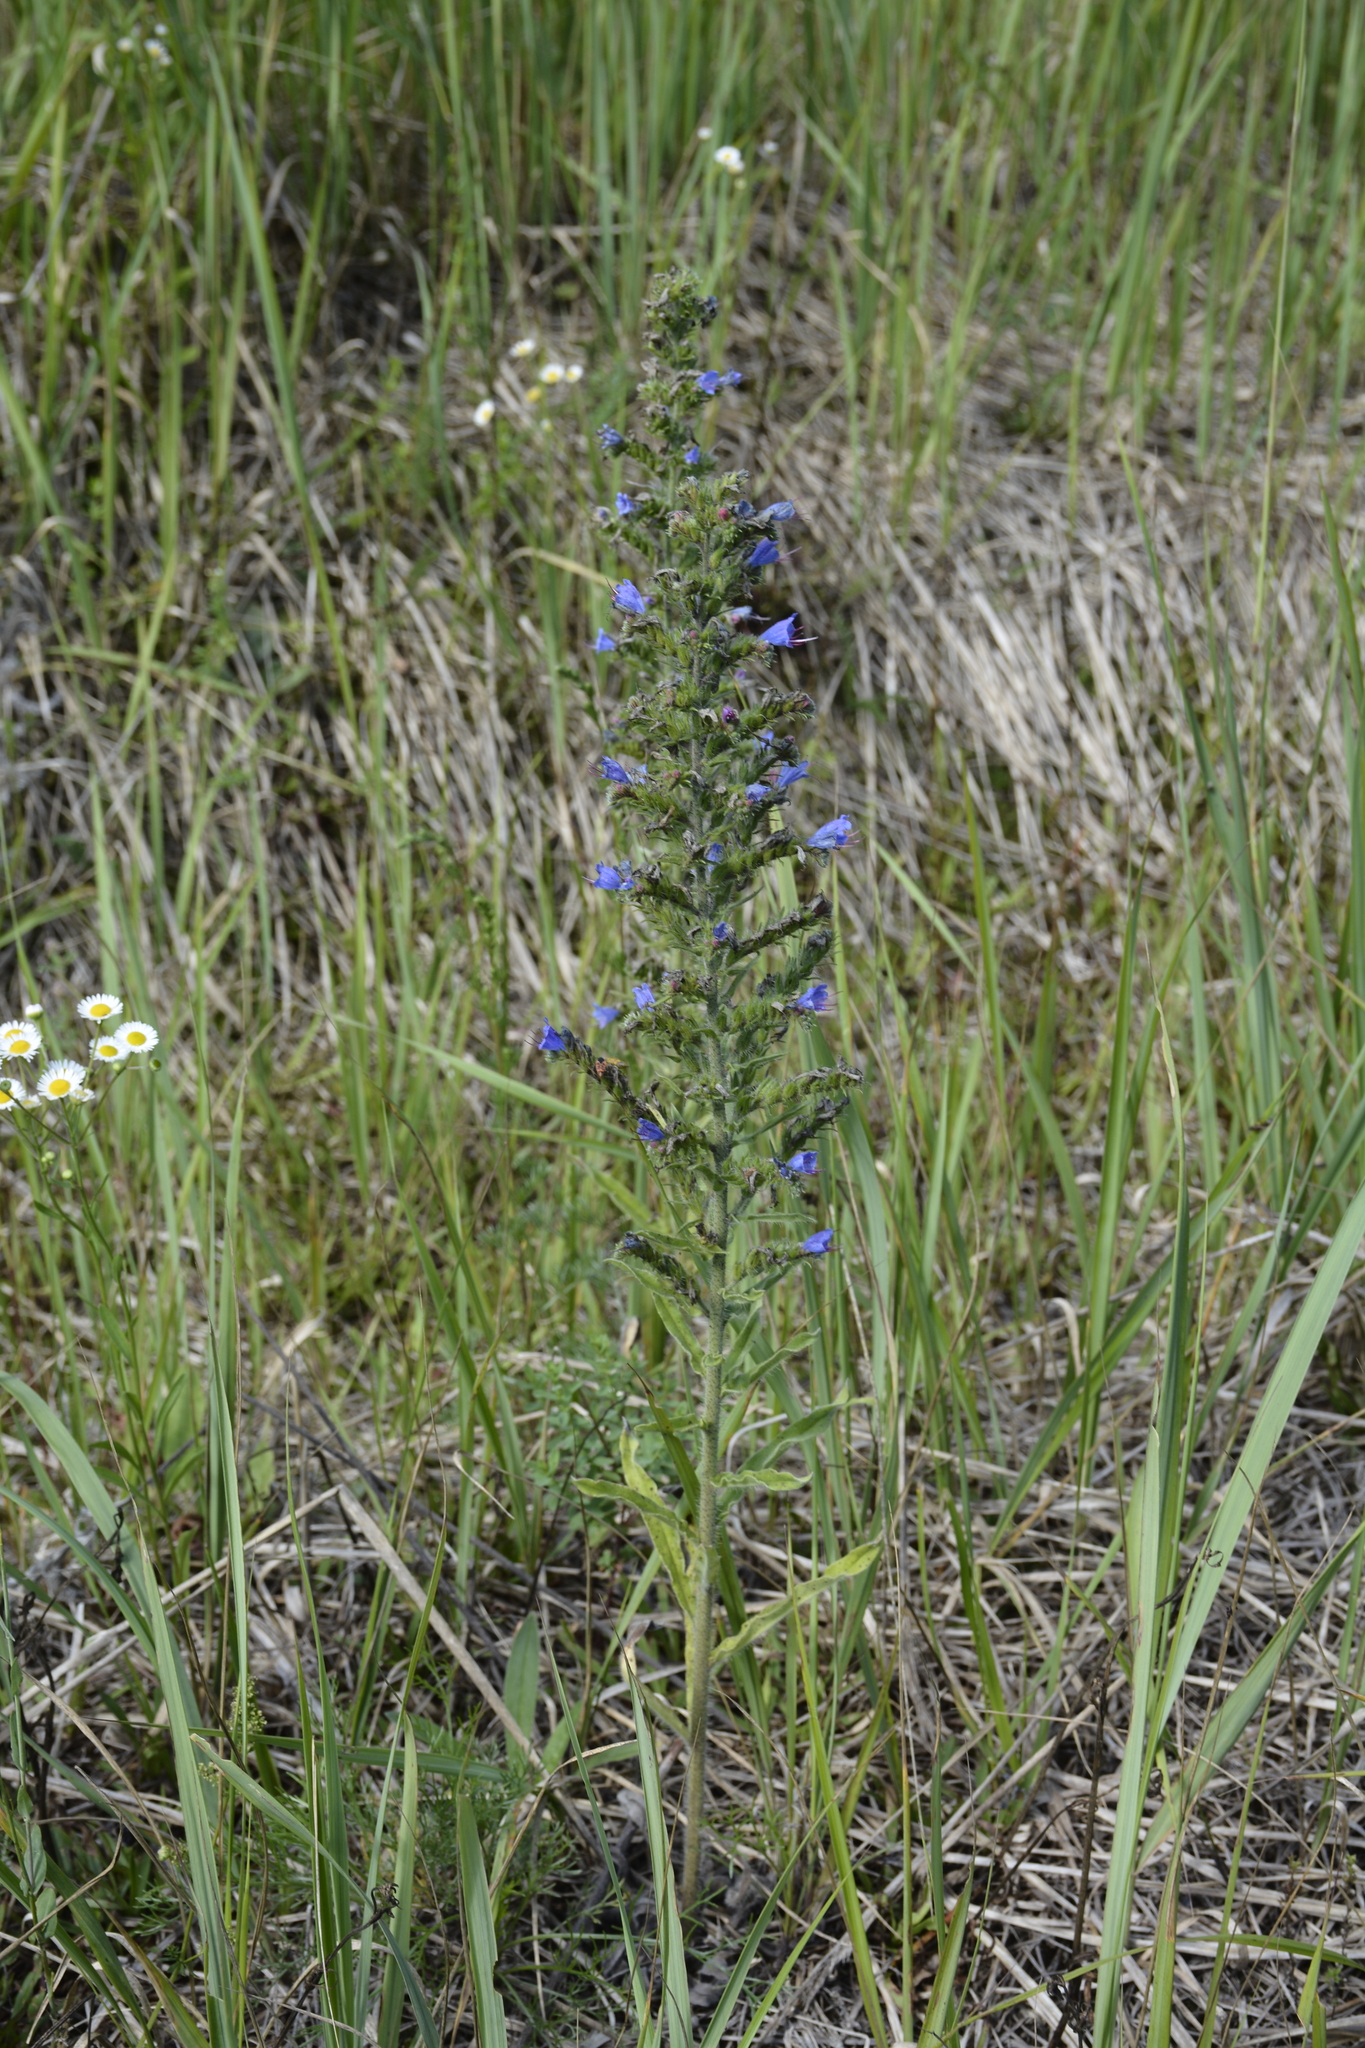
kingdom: Plantae
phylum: Tracheophyta
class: Magnoliopsida
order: Boraginales
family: Boraginaceae
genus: Echium
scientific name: Echium vulgare
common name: Common viper's bugloss
